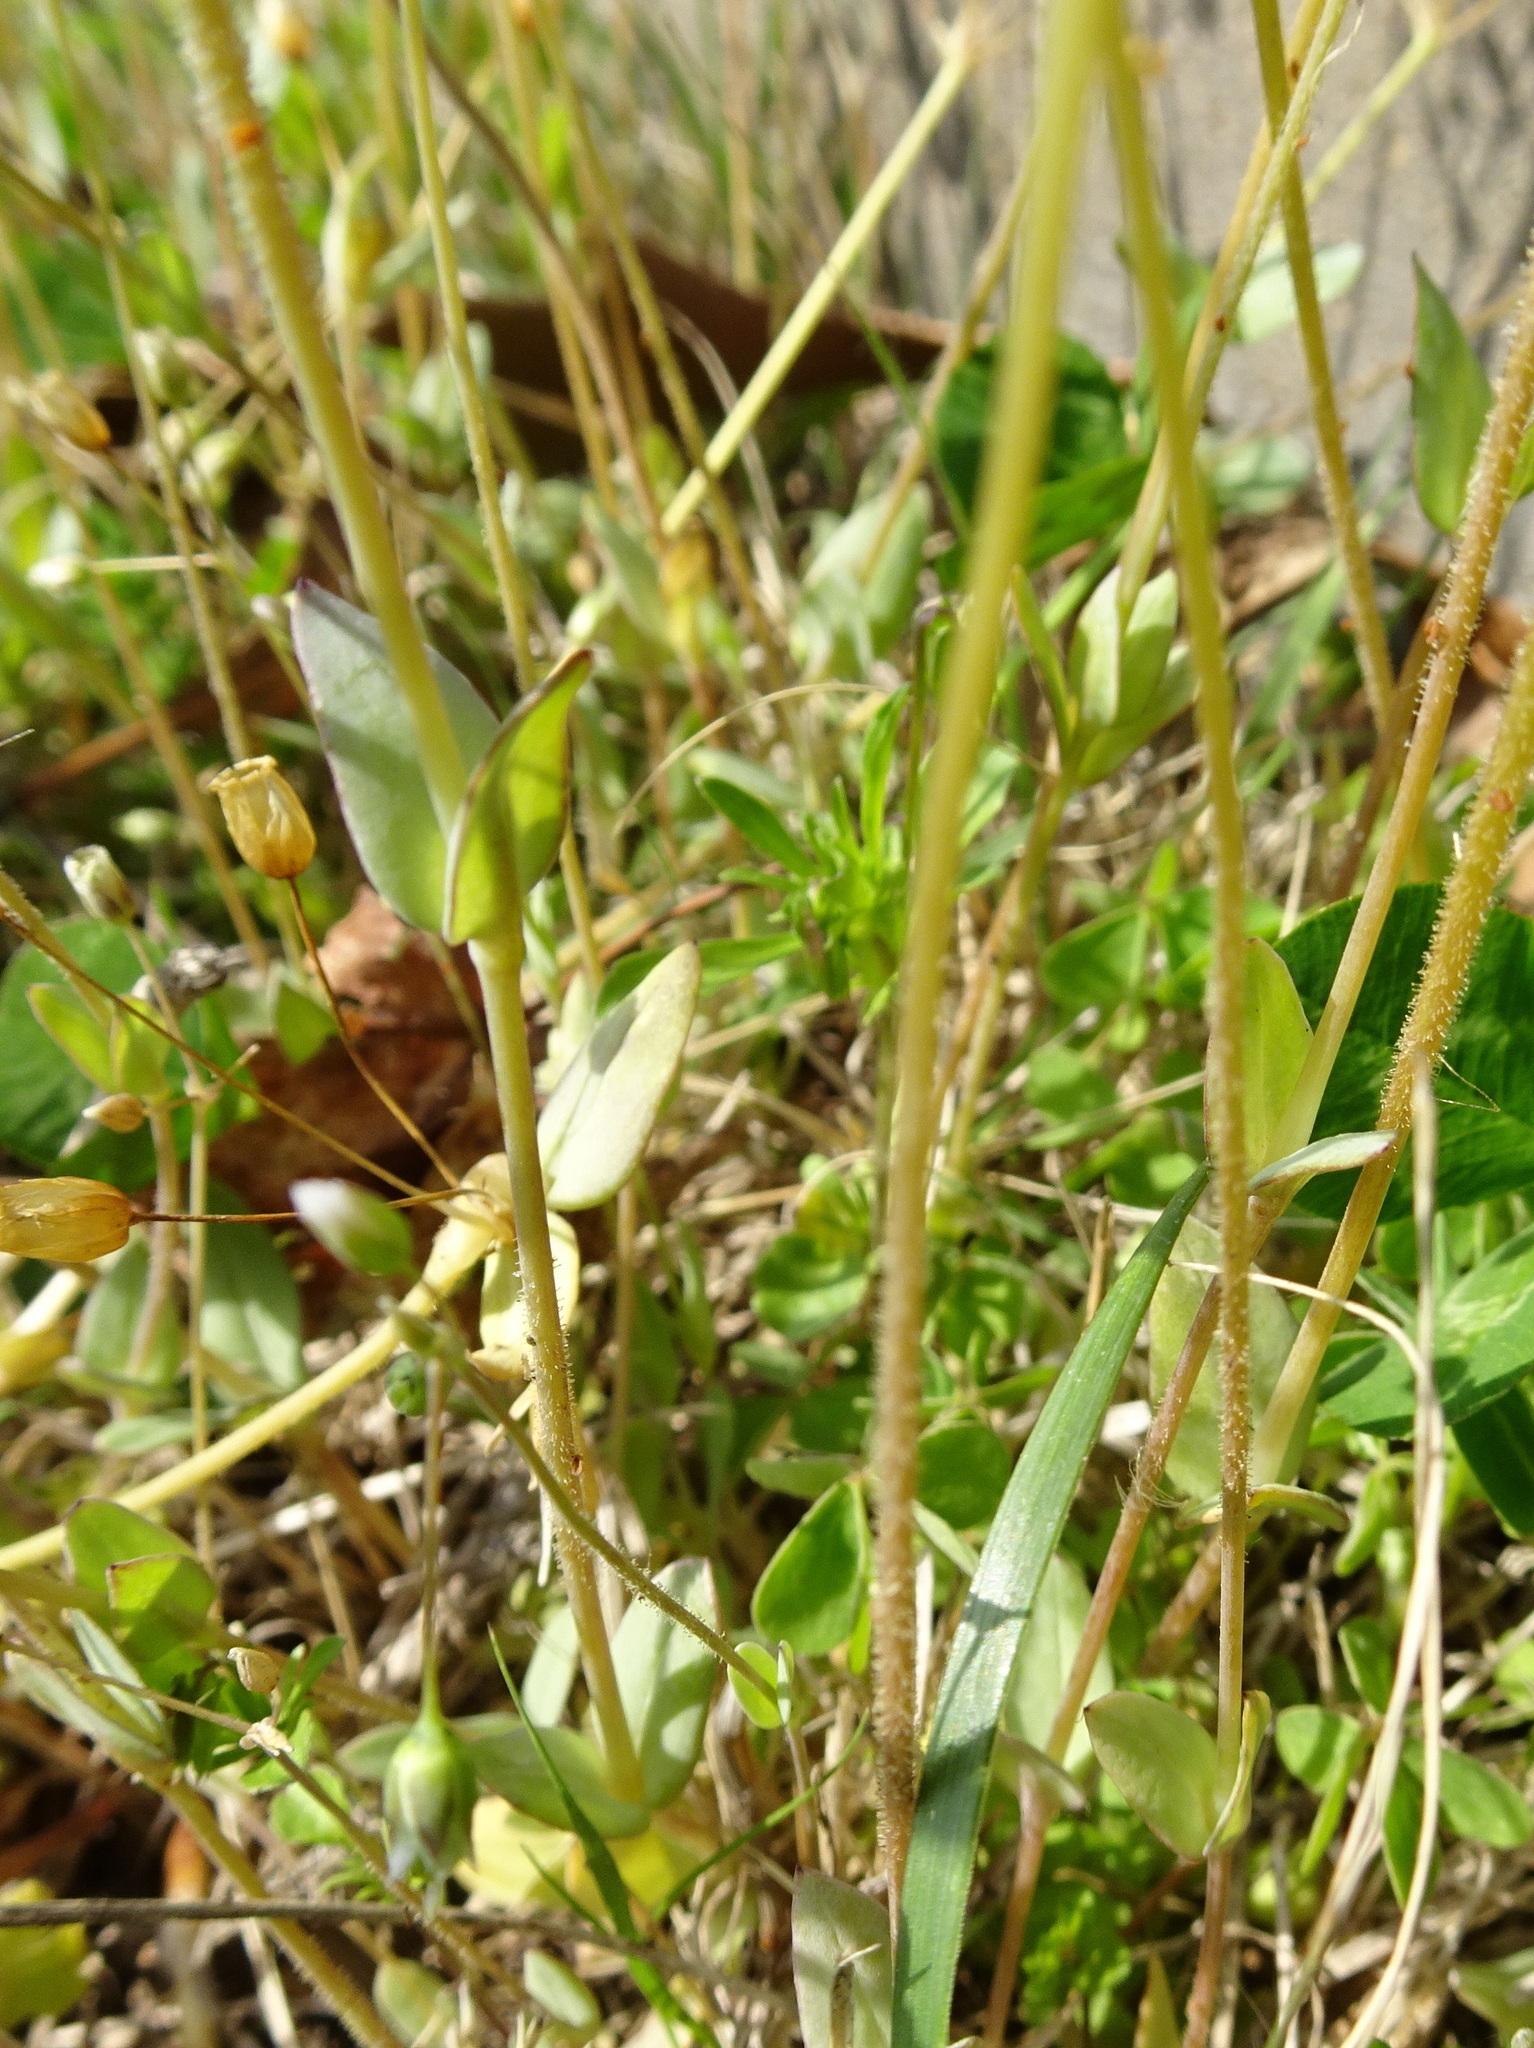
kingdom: Plantae
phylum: Tracheophyta
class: Magnoliopsida
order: Caryophyllales
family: Caryophyllaceae
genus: Holosteum
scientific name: Holosteum umbellatum
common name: Jagged chickweed
